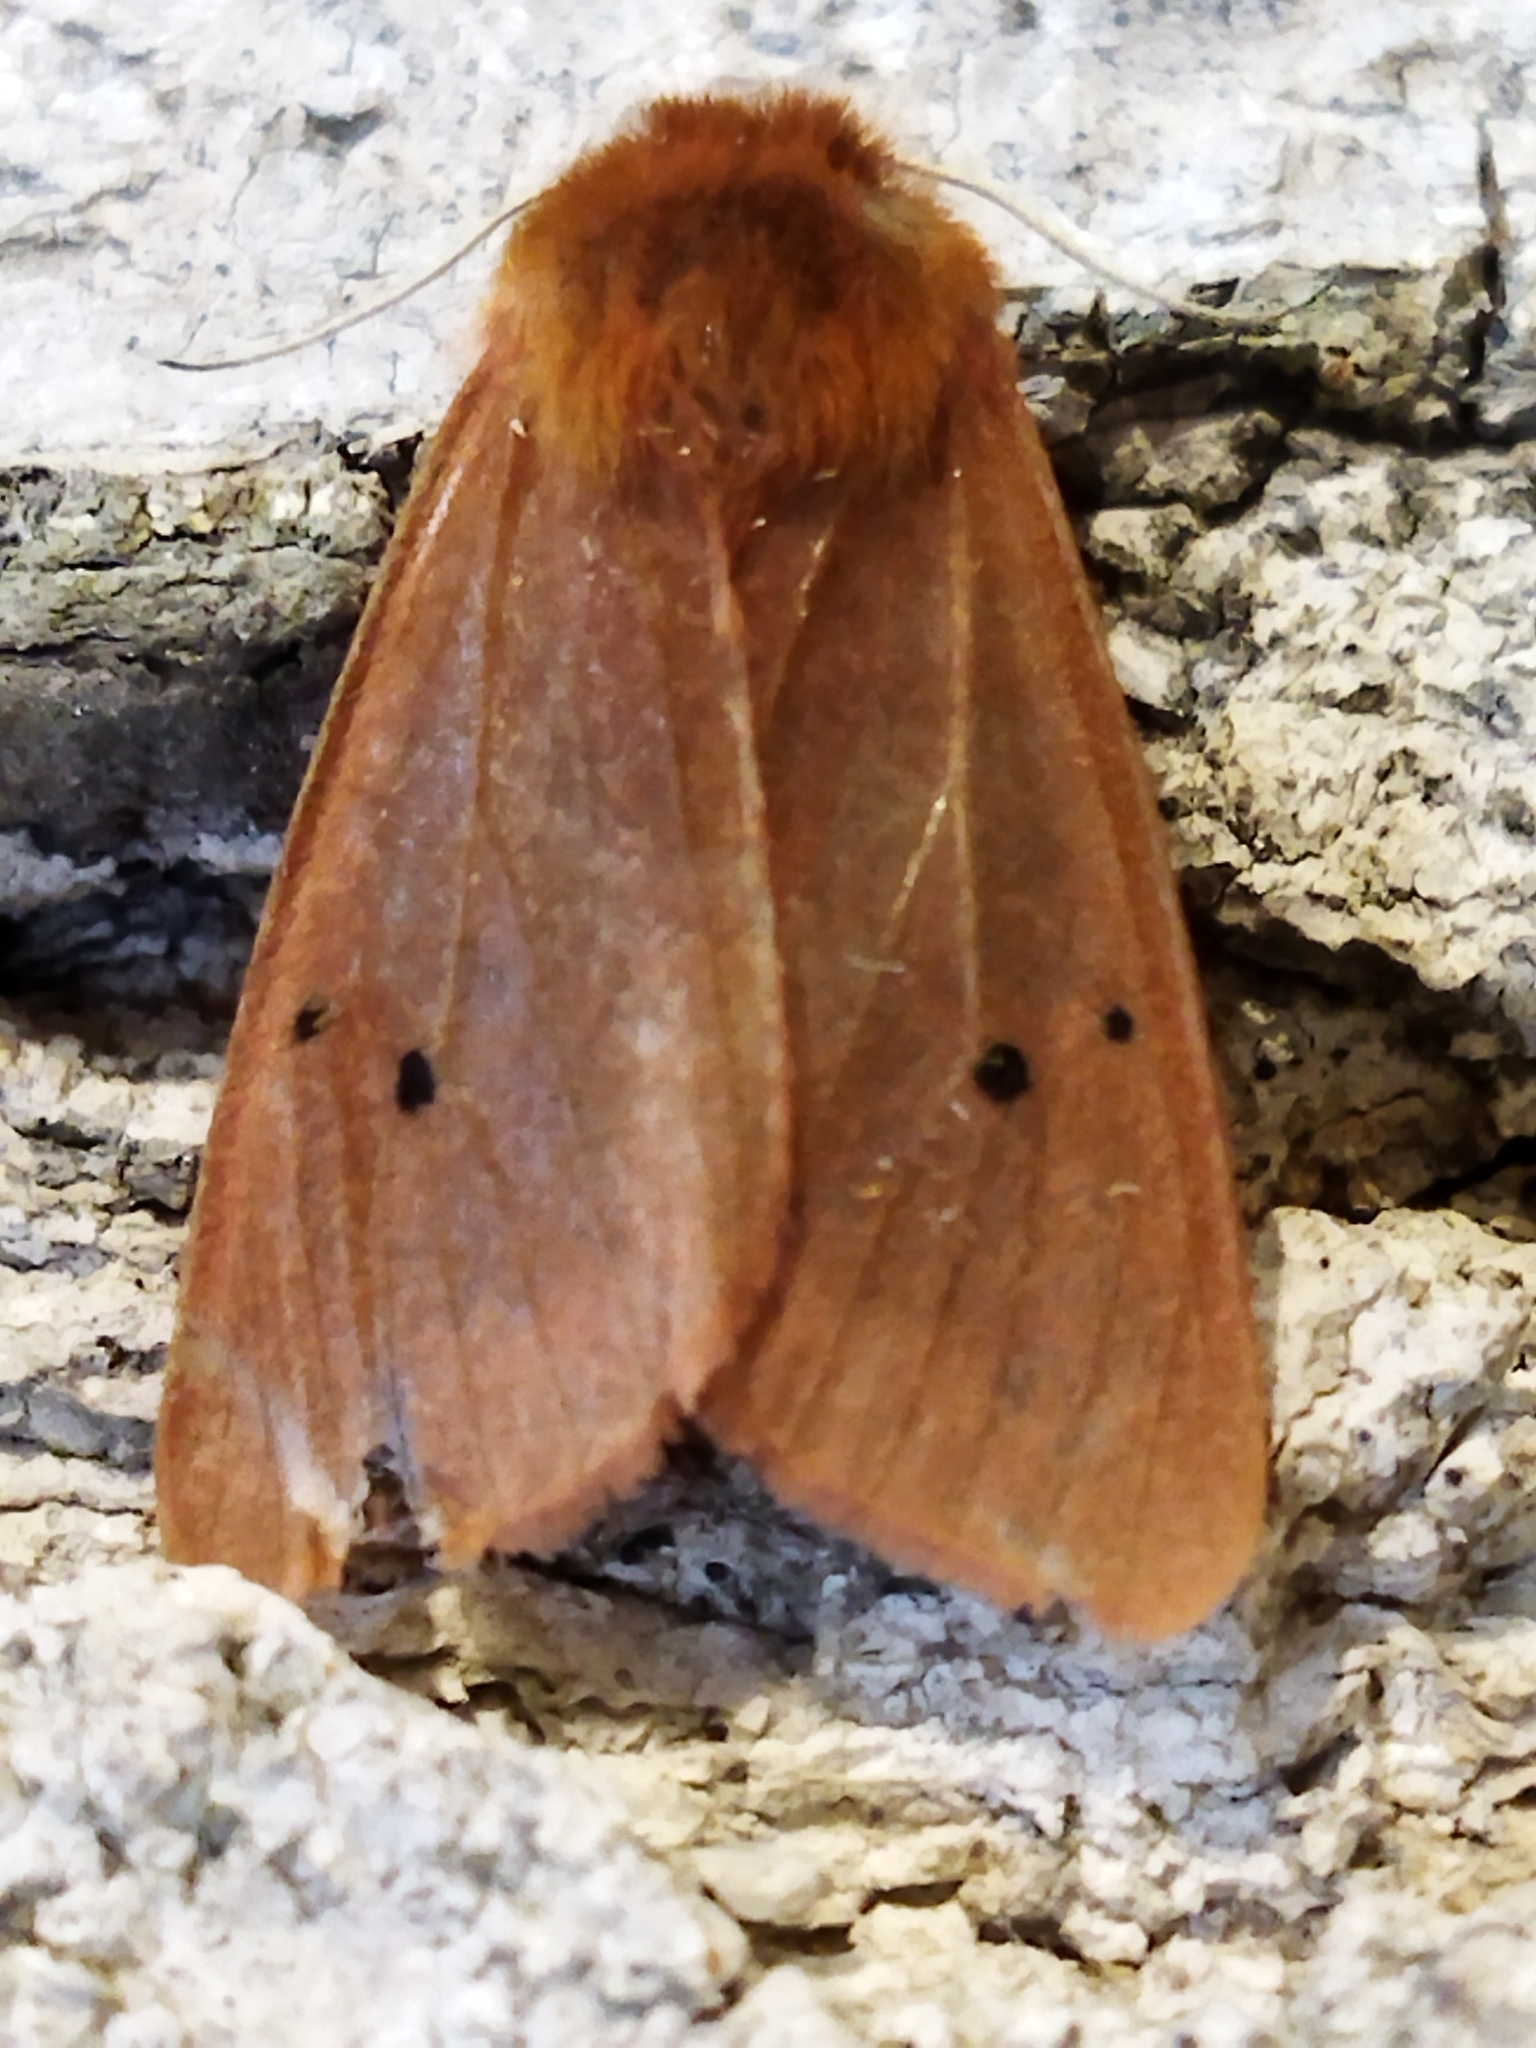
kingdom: Animalia
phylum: Arthropoda
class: Insecta
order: Lepidoptera
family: Erebidae
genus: Phragmatobia
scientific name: Phragmatobia fuliginosa
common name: Ruby tiger
